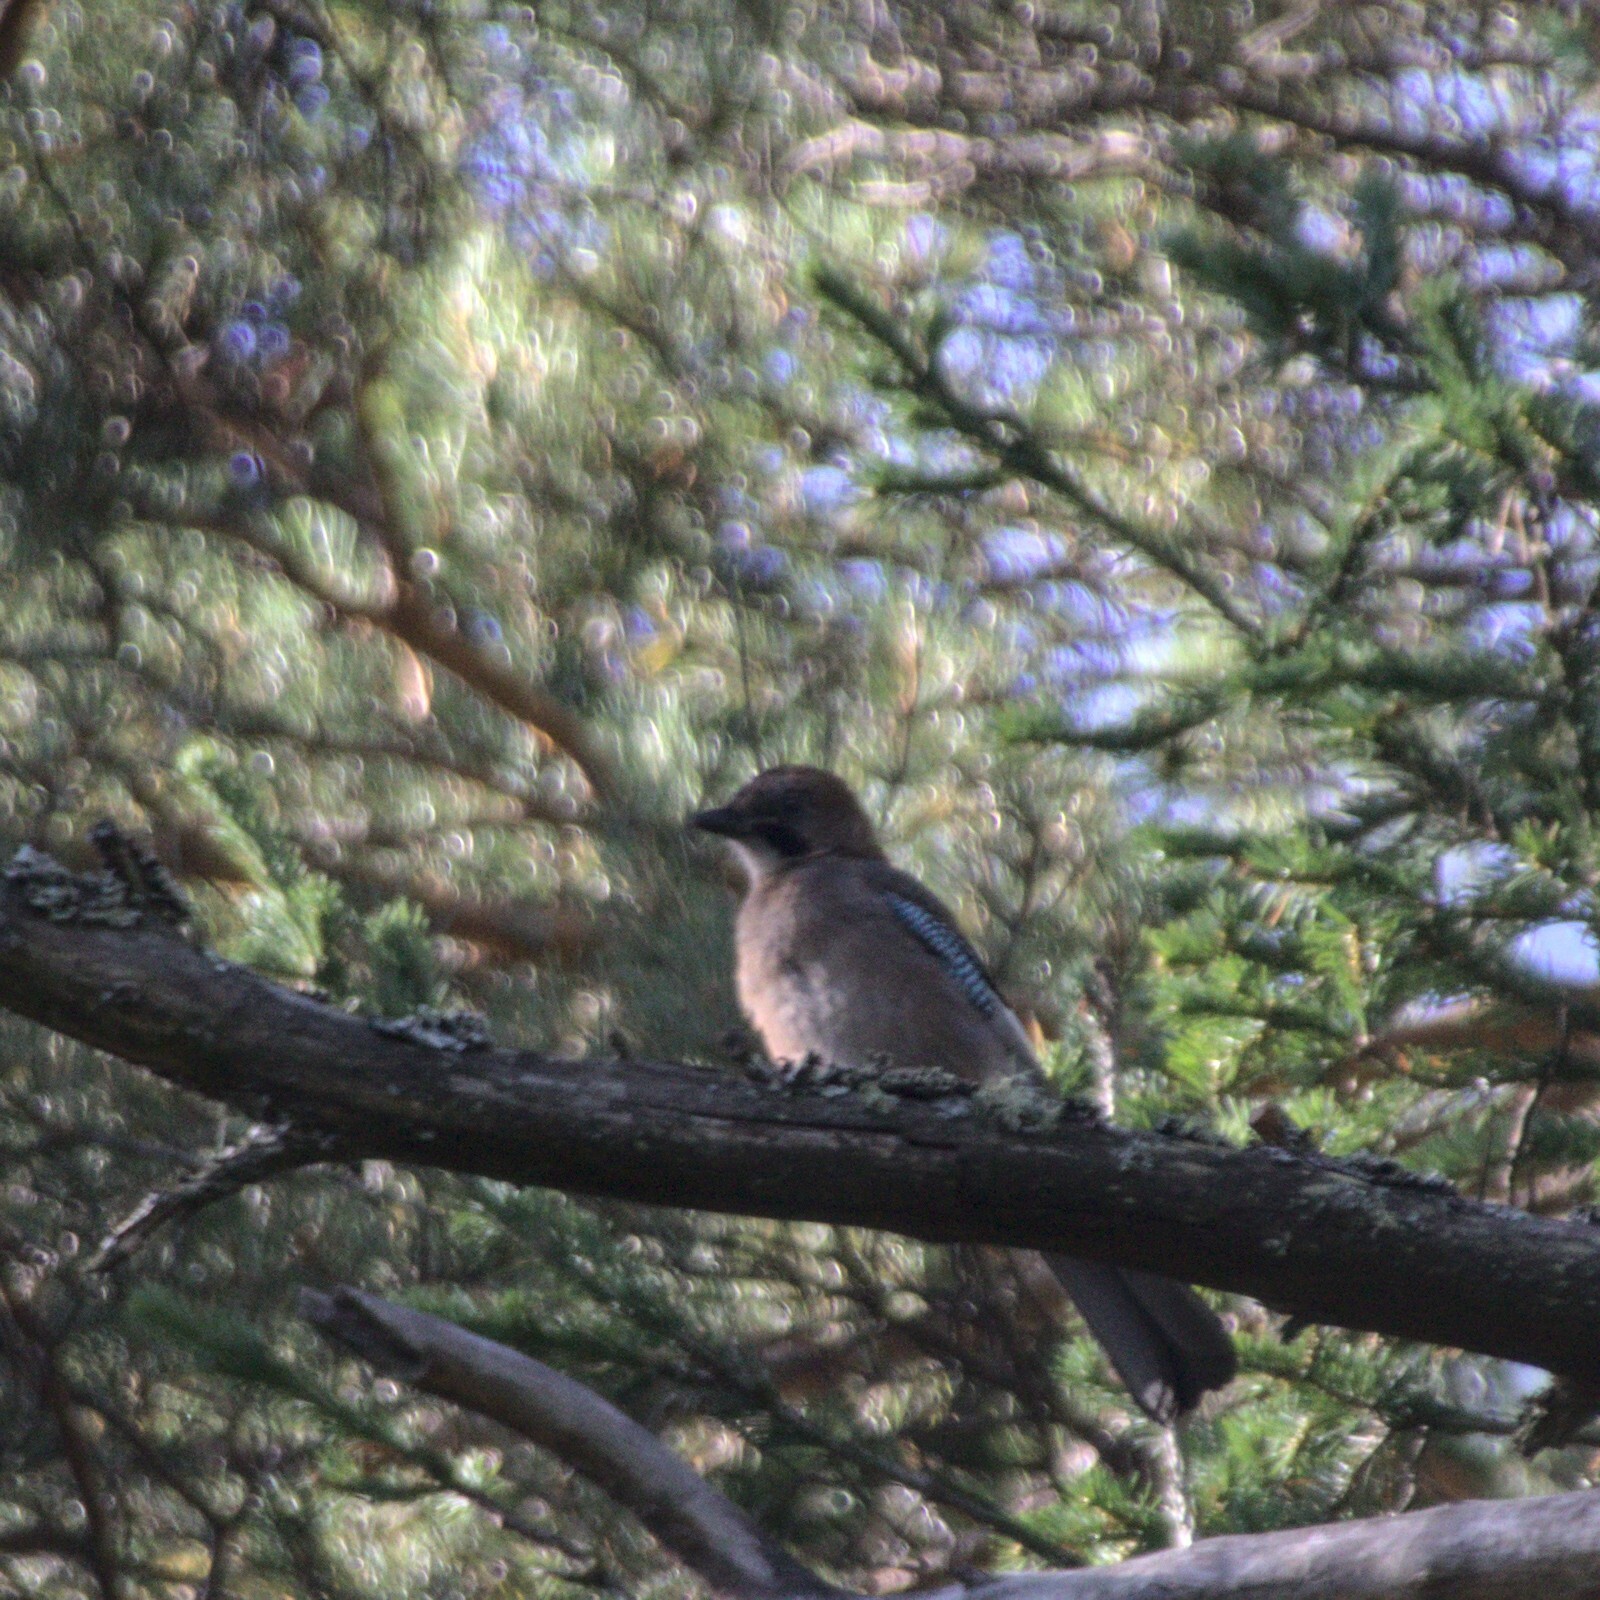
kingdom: Animalia
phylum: Chordata
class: Aves
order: Passeriformes
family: Corvidae
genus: Garrulus
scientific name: Garrulus glandarius
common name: Eurasian jay
